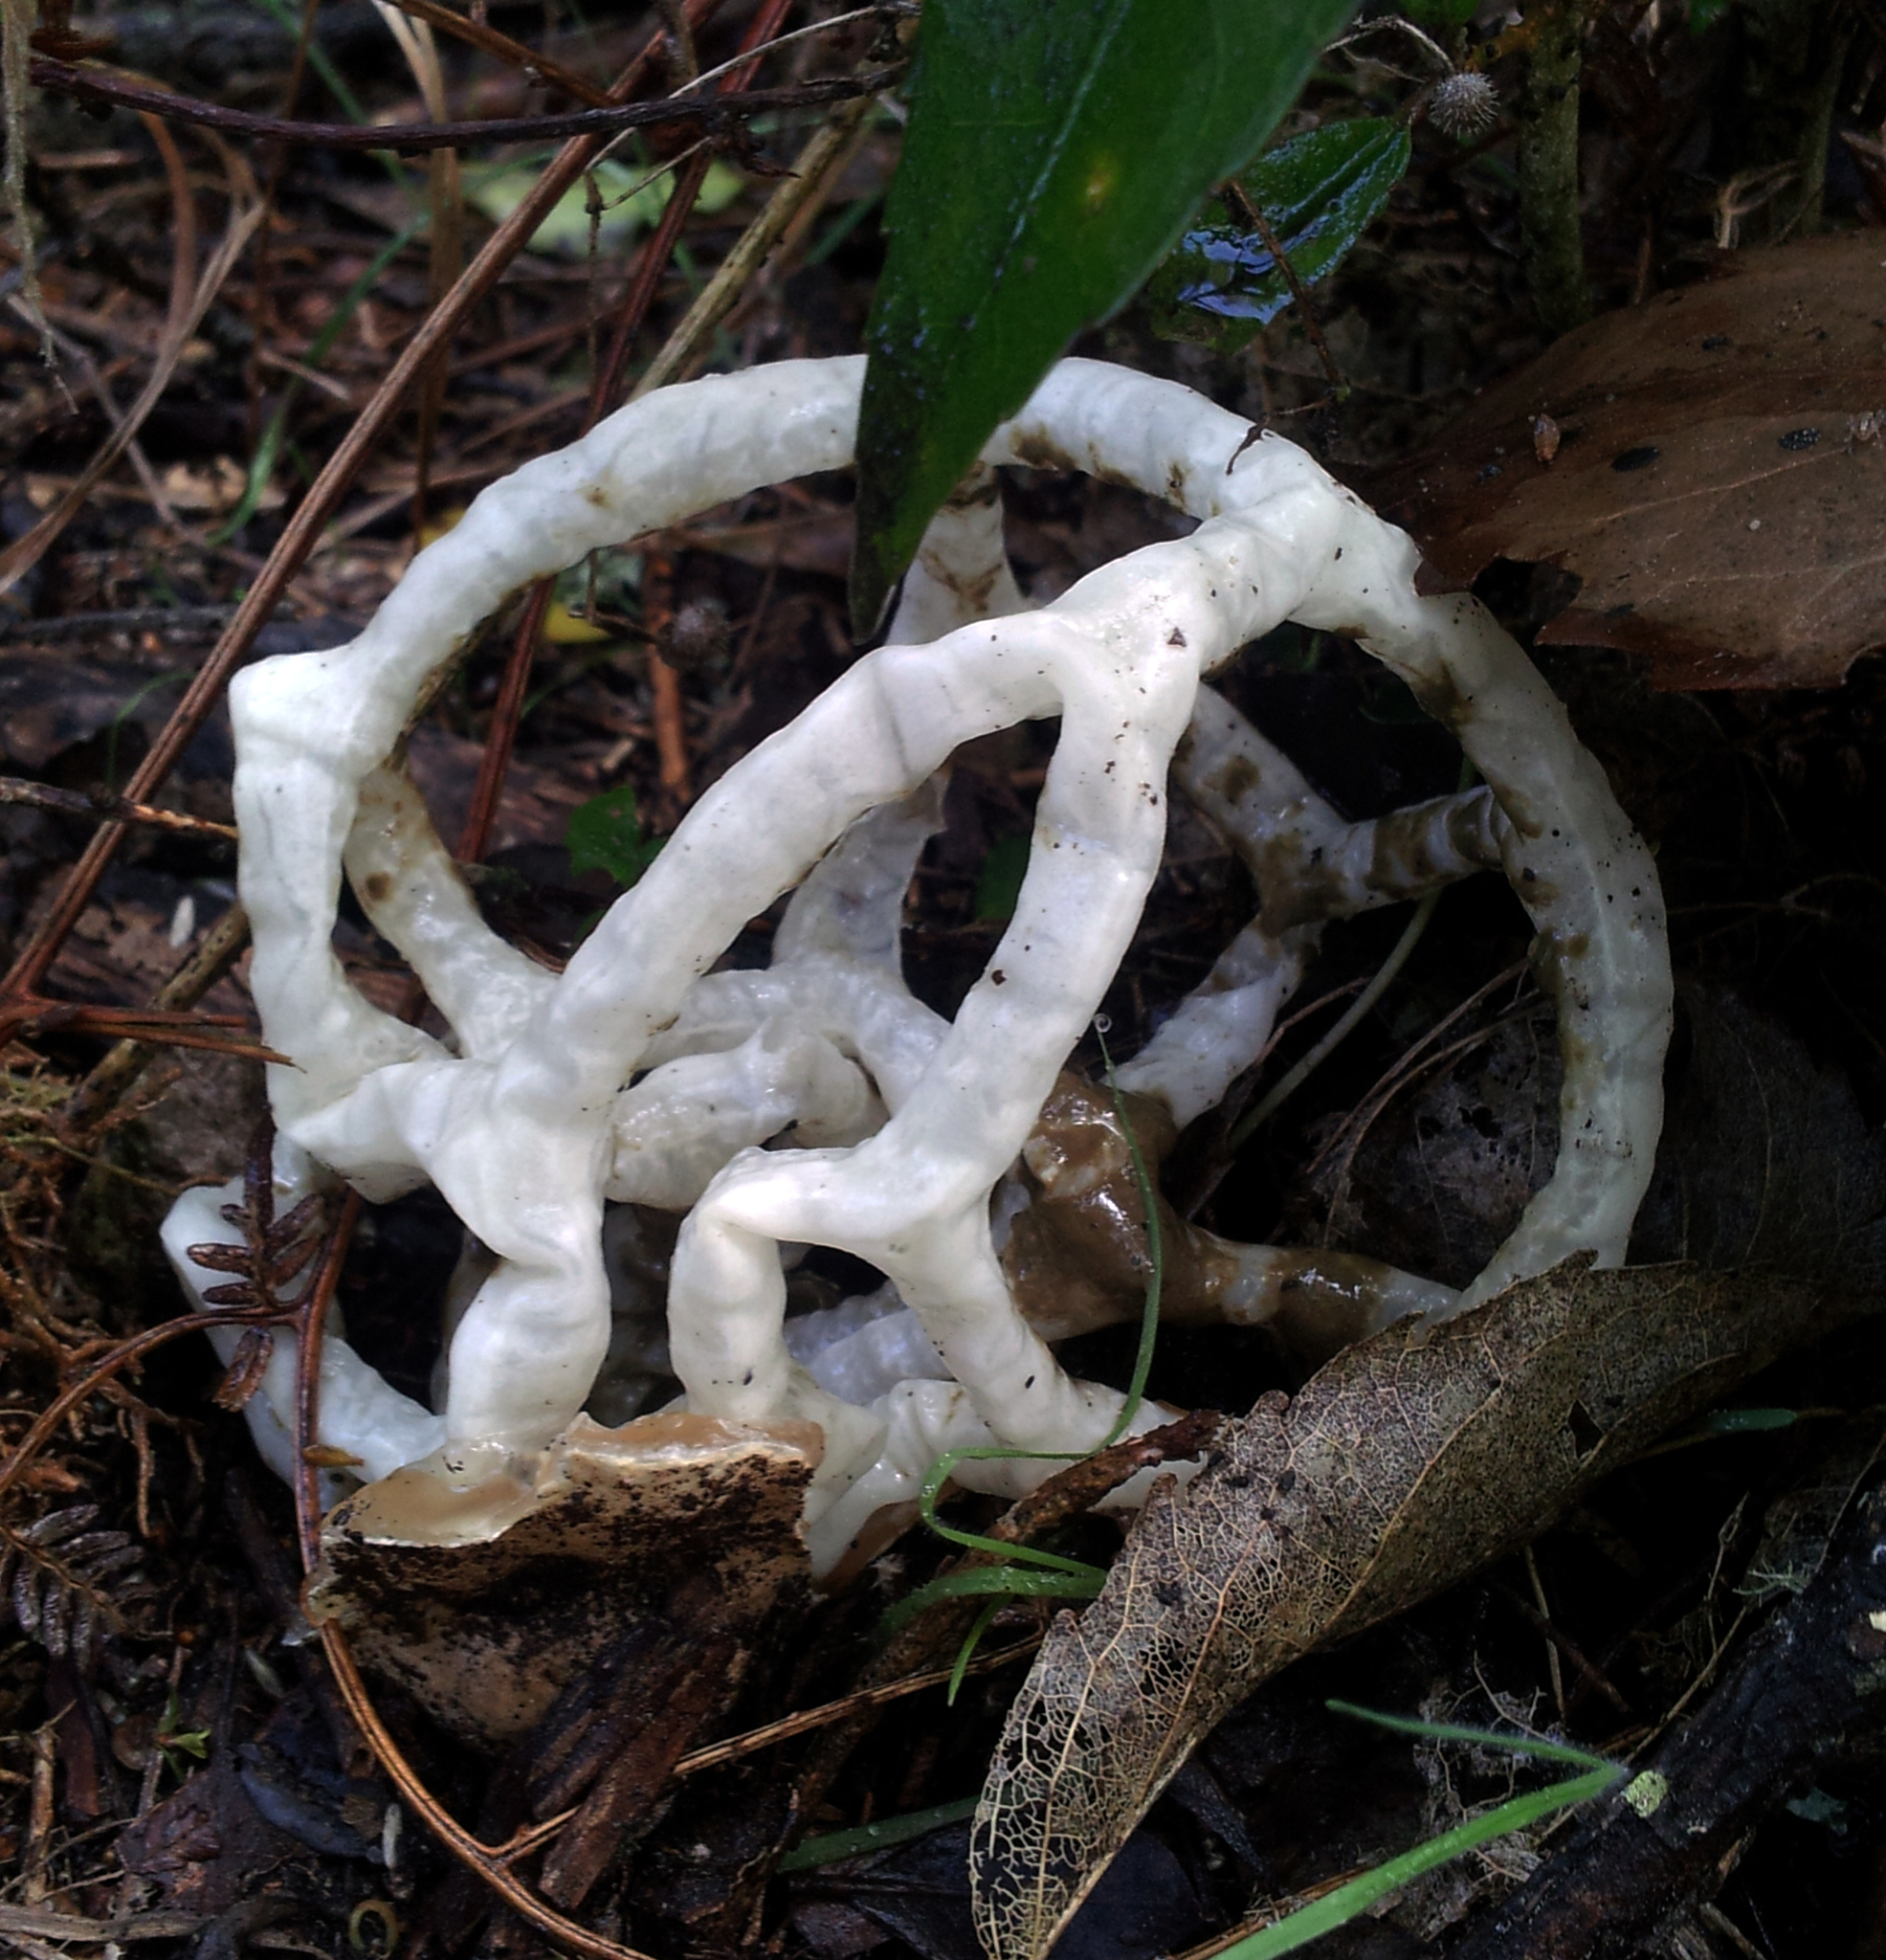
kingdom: Fungi
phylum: Basidiomycota
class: Agaricomycetes
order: Phallales
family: Phallaceae
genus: Ileodictyon
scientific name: Ileodictyon cibarium
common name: Basket fungus
